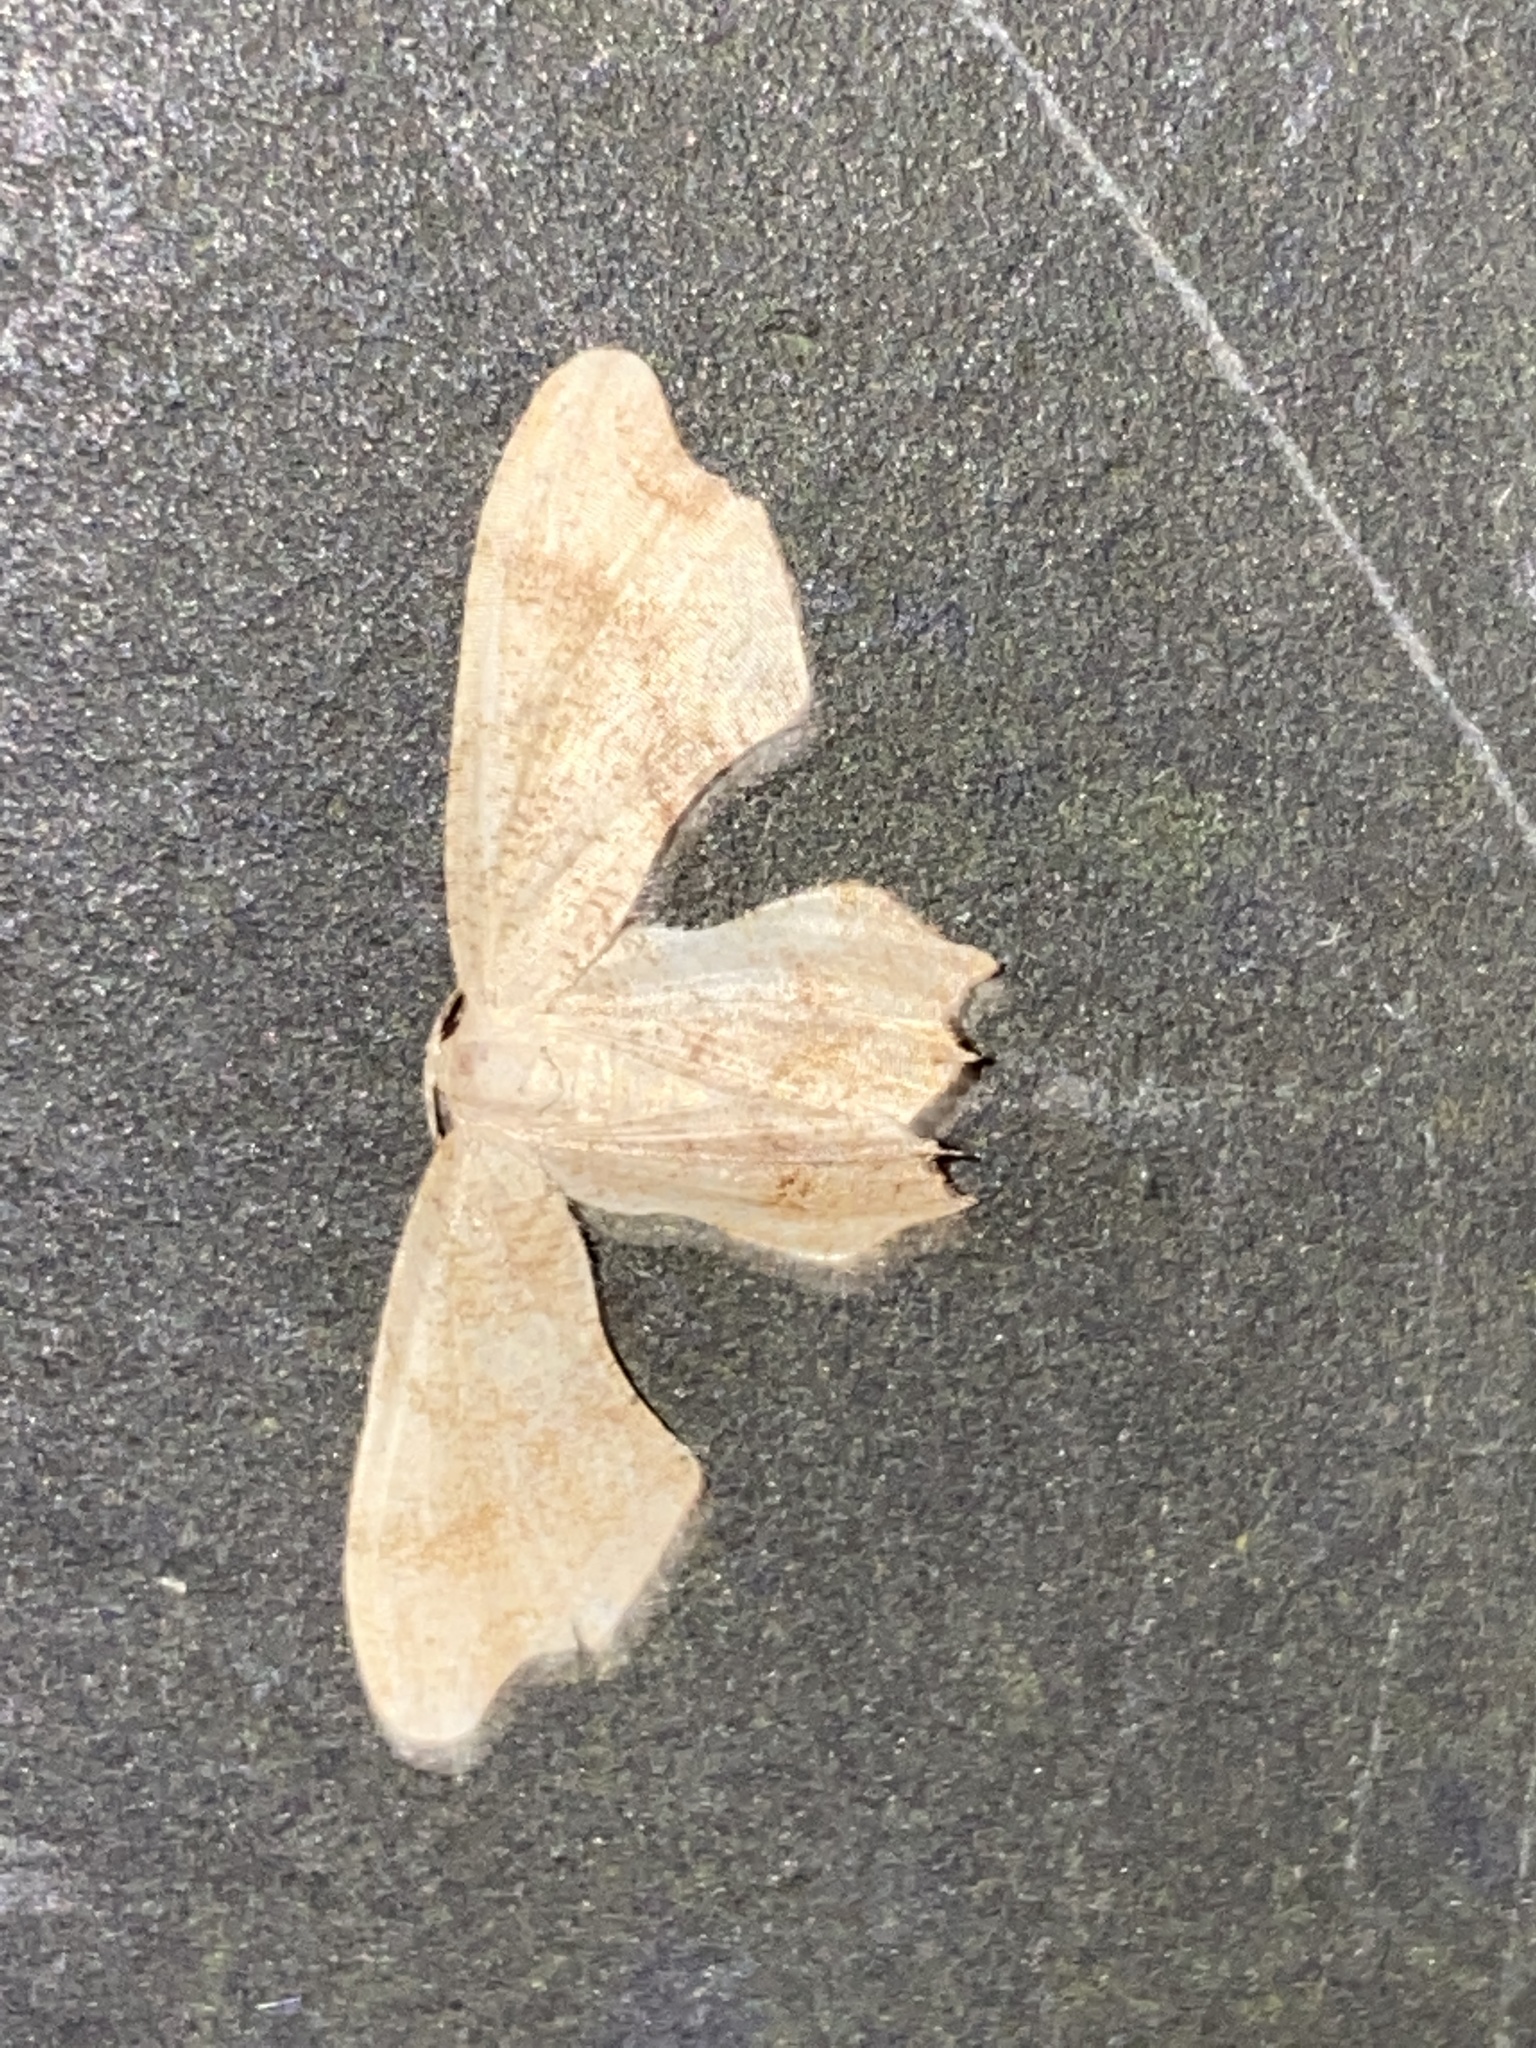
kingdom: Animalia
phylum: Arthropoda
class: Insecta
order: Lepidoptera
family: Uraniidae
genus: Epiplema
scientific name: Epiplema Calledapteryx dryopterata
